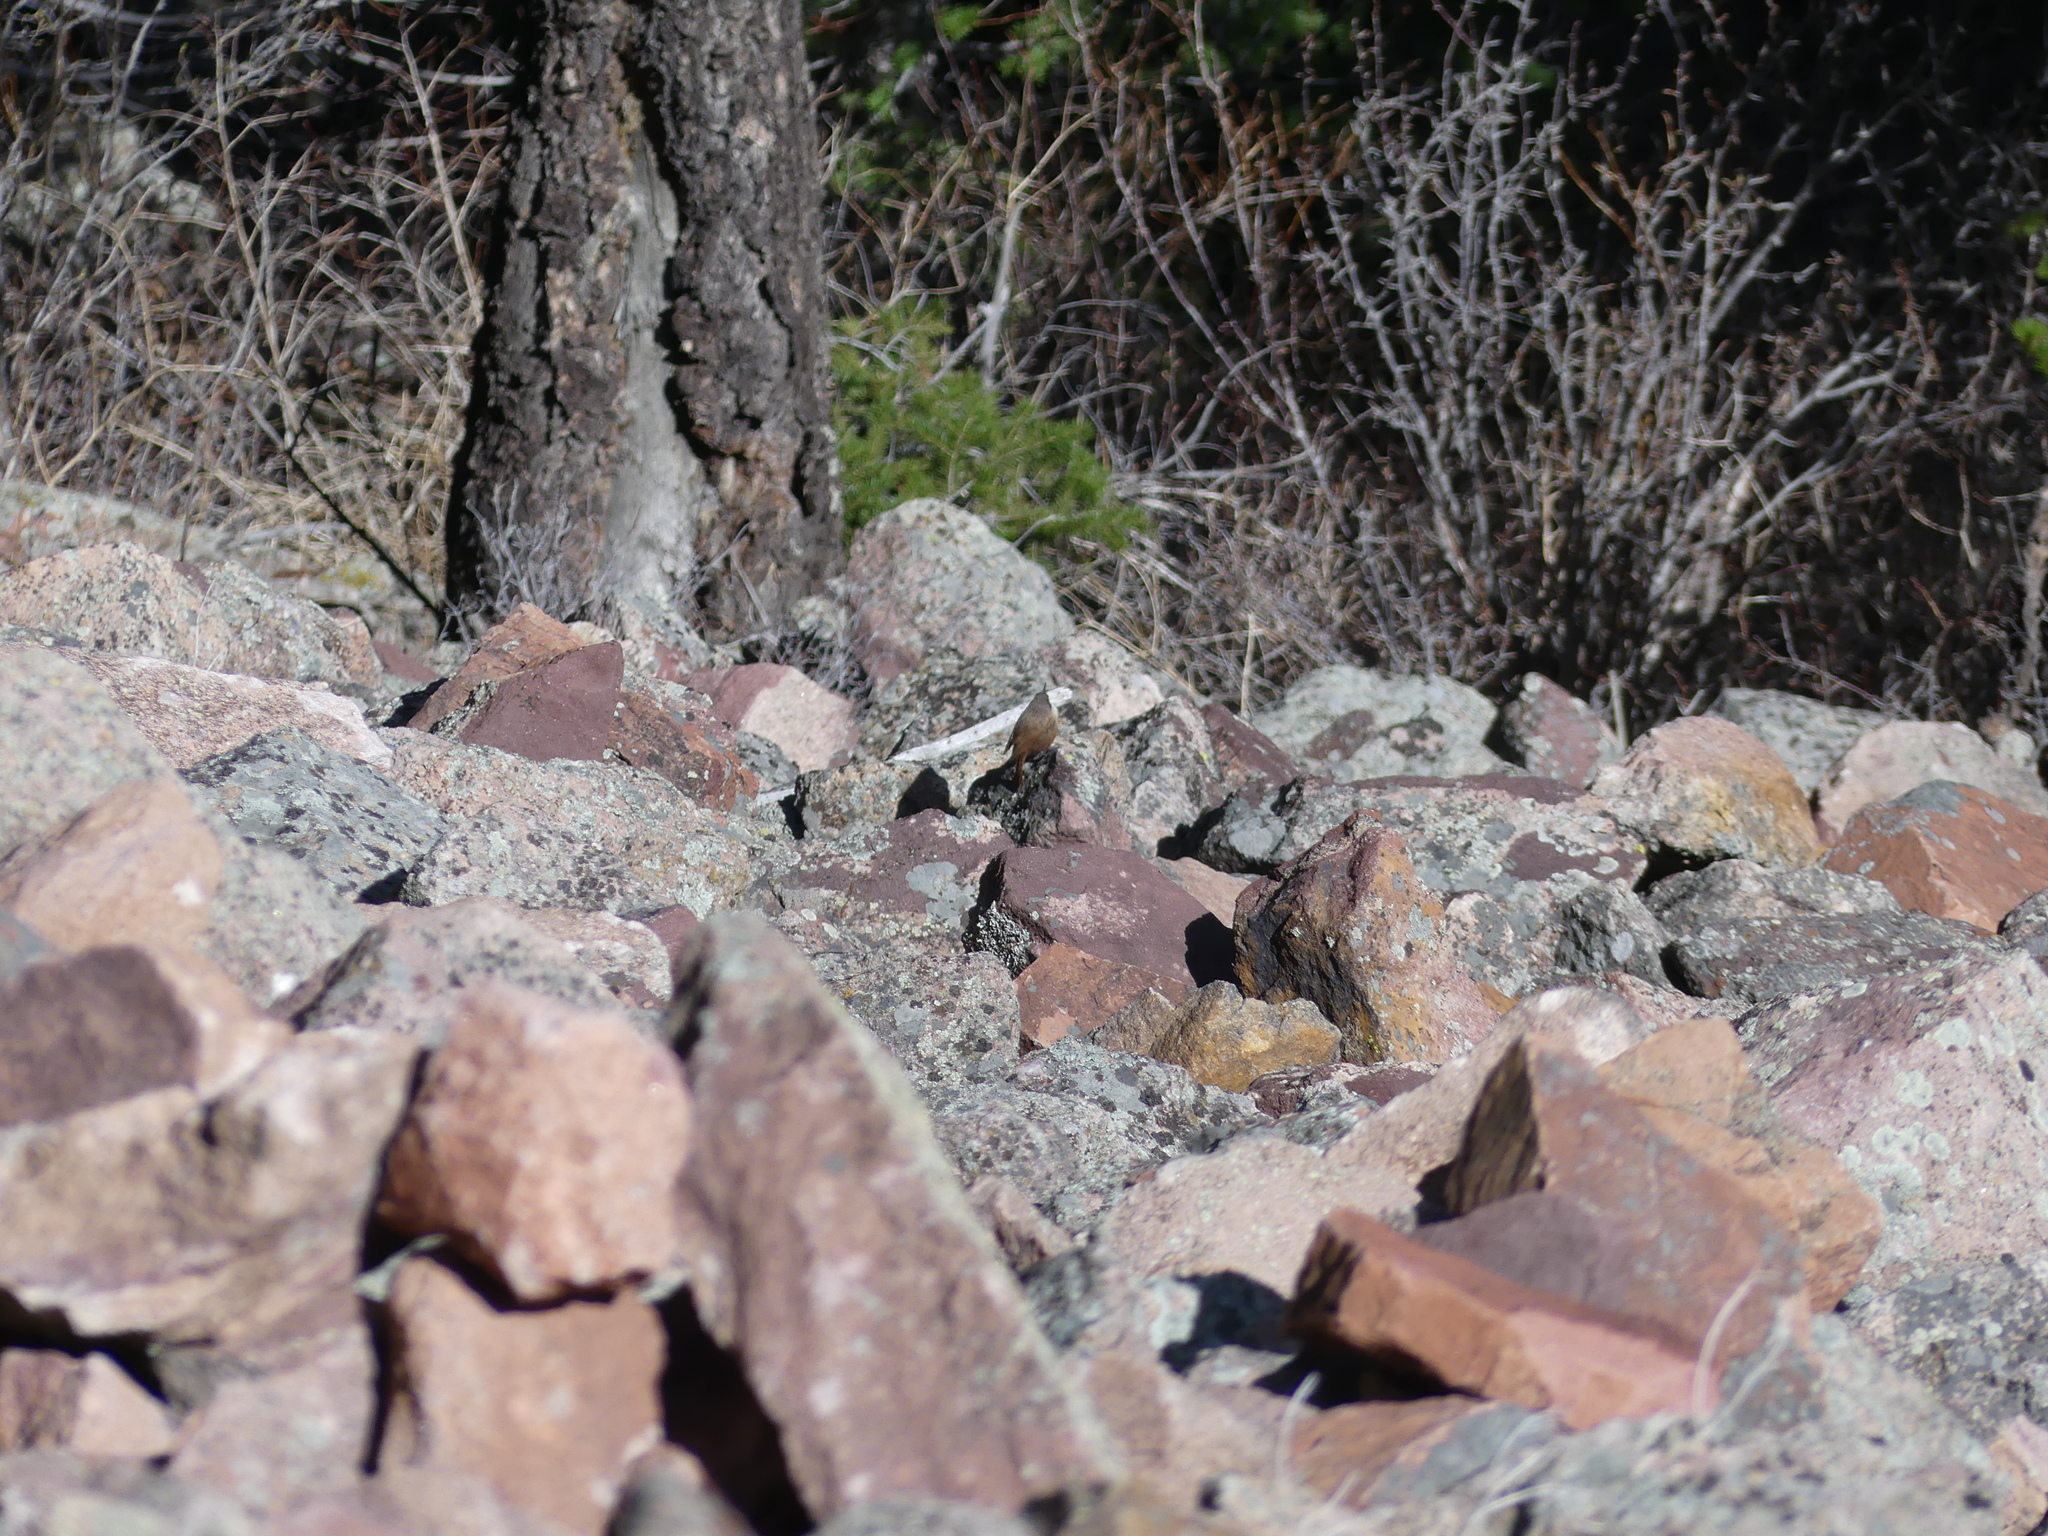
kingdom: Animalia
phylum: Chordata
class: Aves
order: Passeriformes
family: Troglodytidae
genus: Catherpes
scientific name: Catherpes mexicanus
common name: Canyon wren
